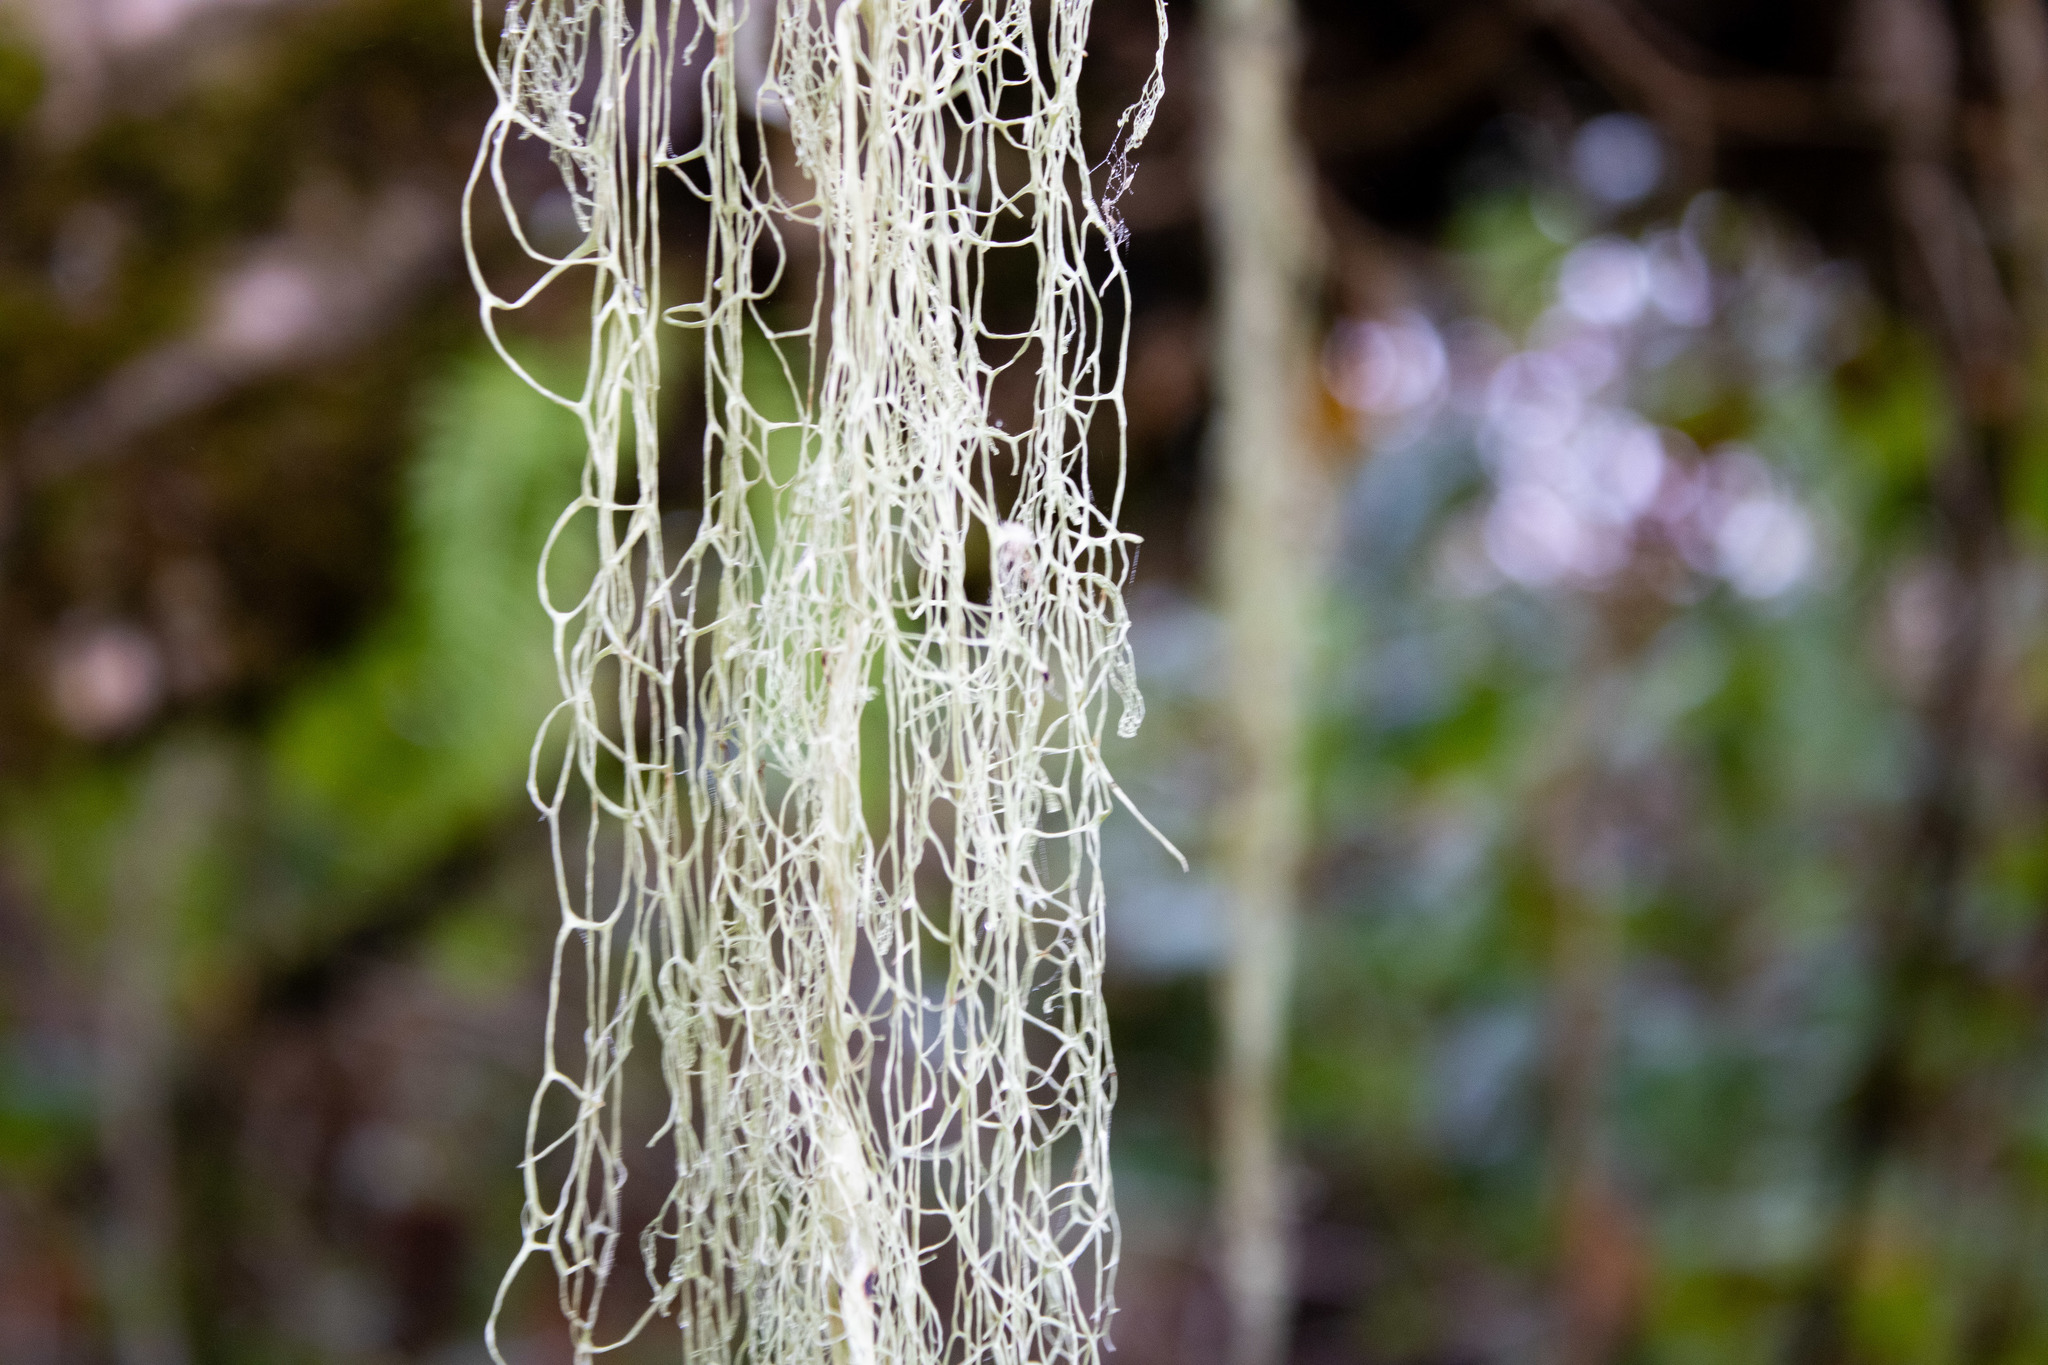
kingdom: Fungi
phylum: Ascomycota
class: Lecanoromycetes
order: Lecanorales
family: Ramalinaceae
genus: Ramalina
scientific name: Ramalina menziesii
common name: Lace lichen
